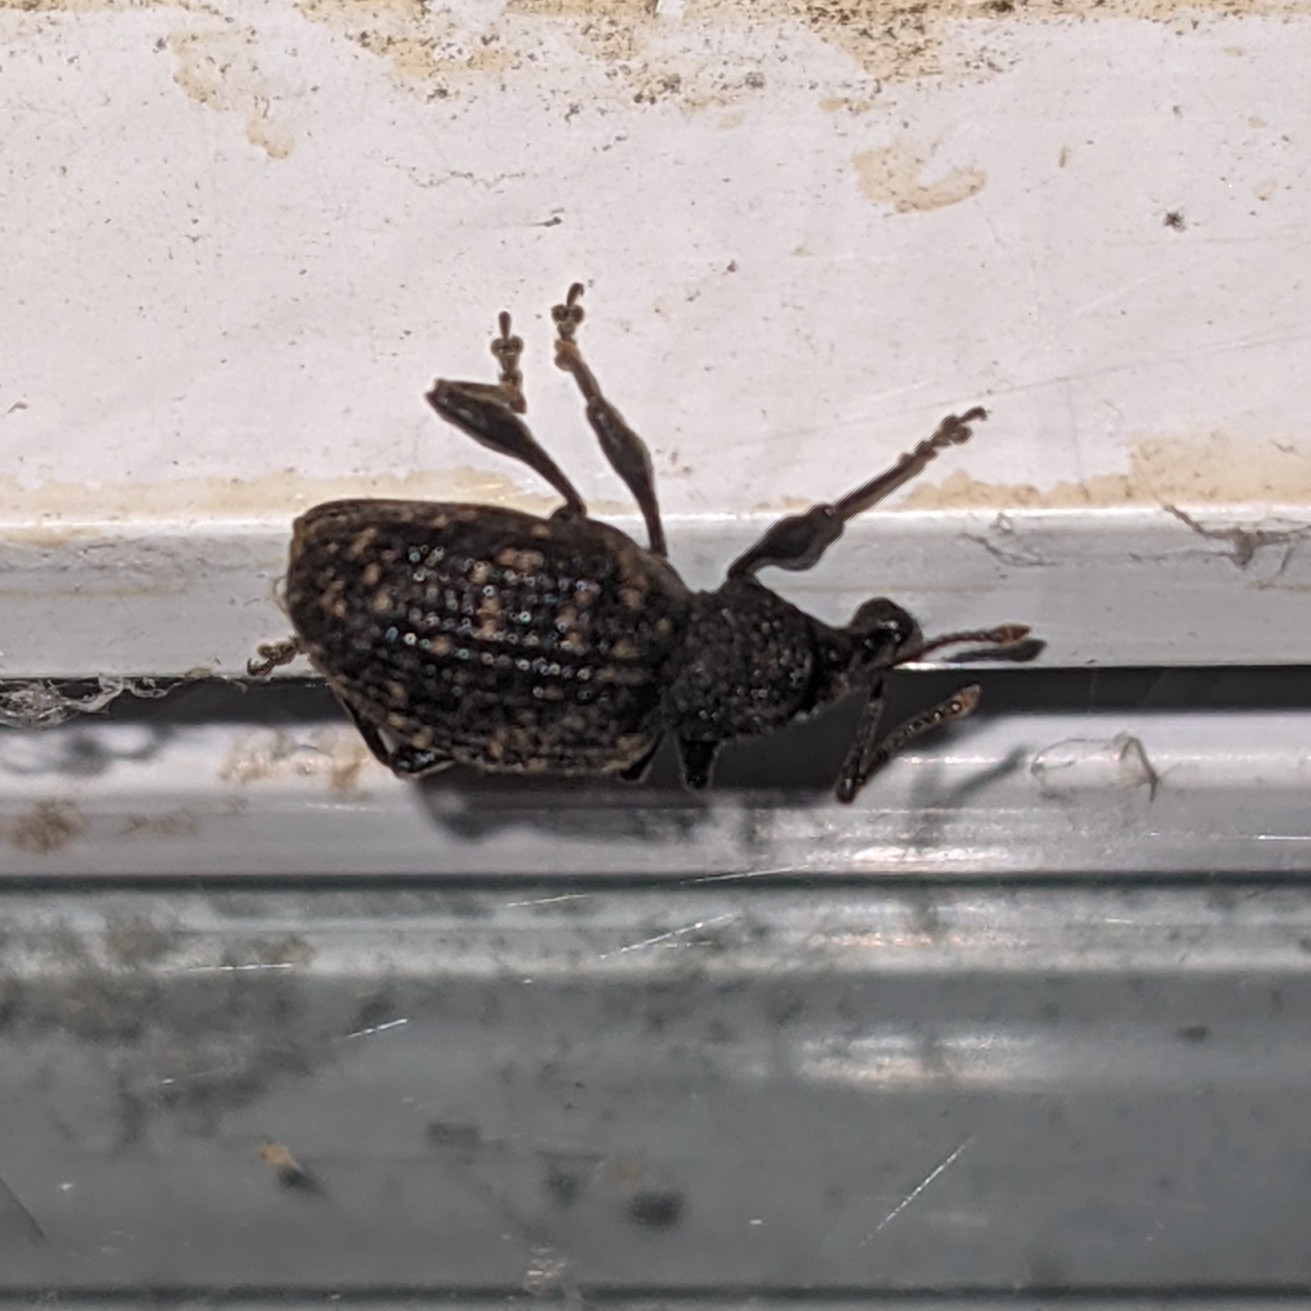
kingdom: Animalia
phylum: Arthropoda
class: Insecta
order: Coleoptera
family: Curculionidae
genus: Otiorhynchus
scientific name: Otiorhynchus sulcatus
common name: Black vine weevil
